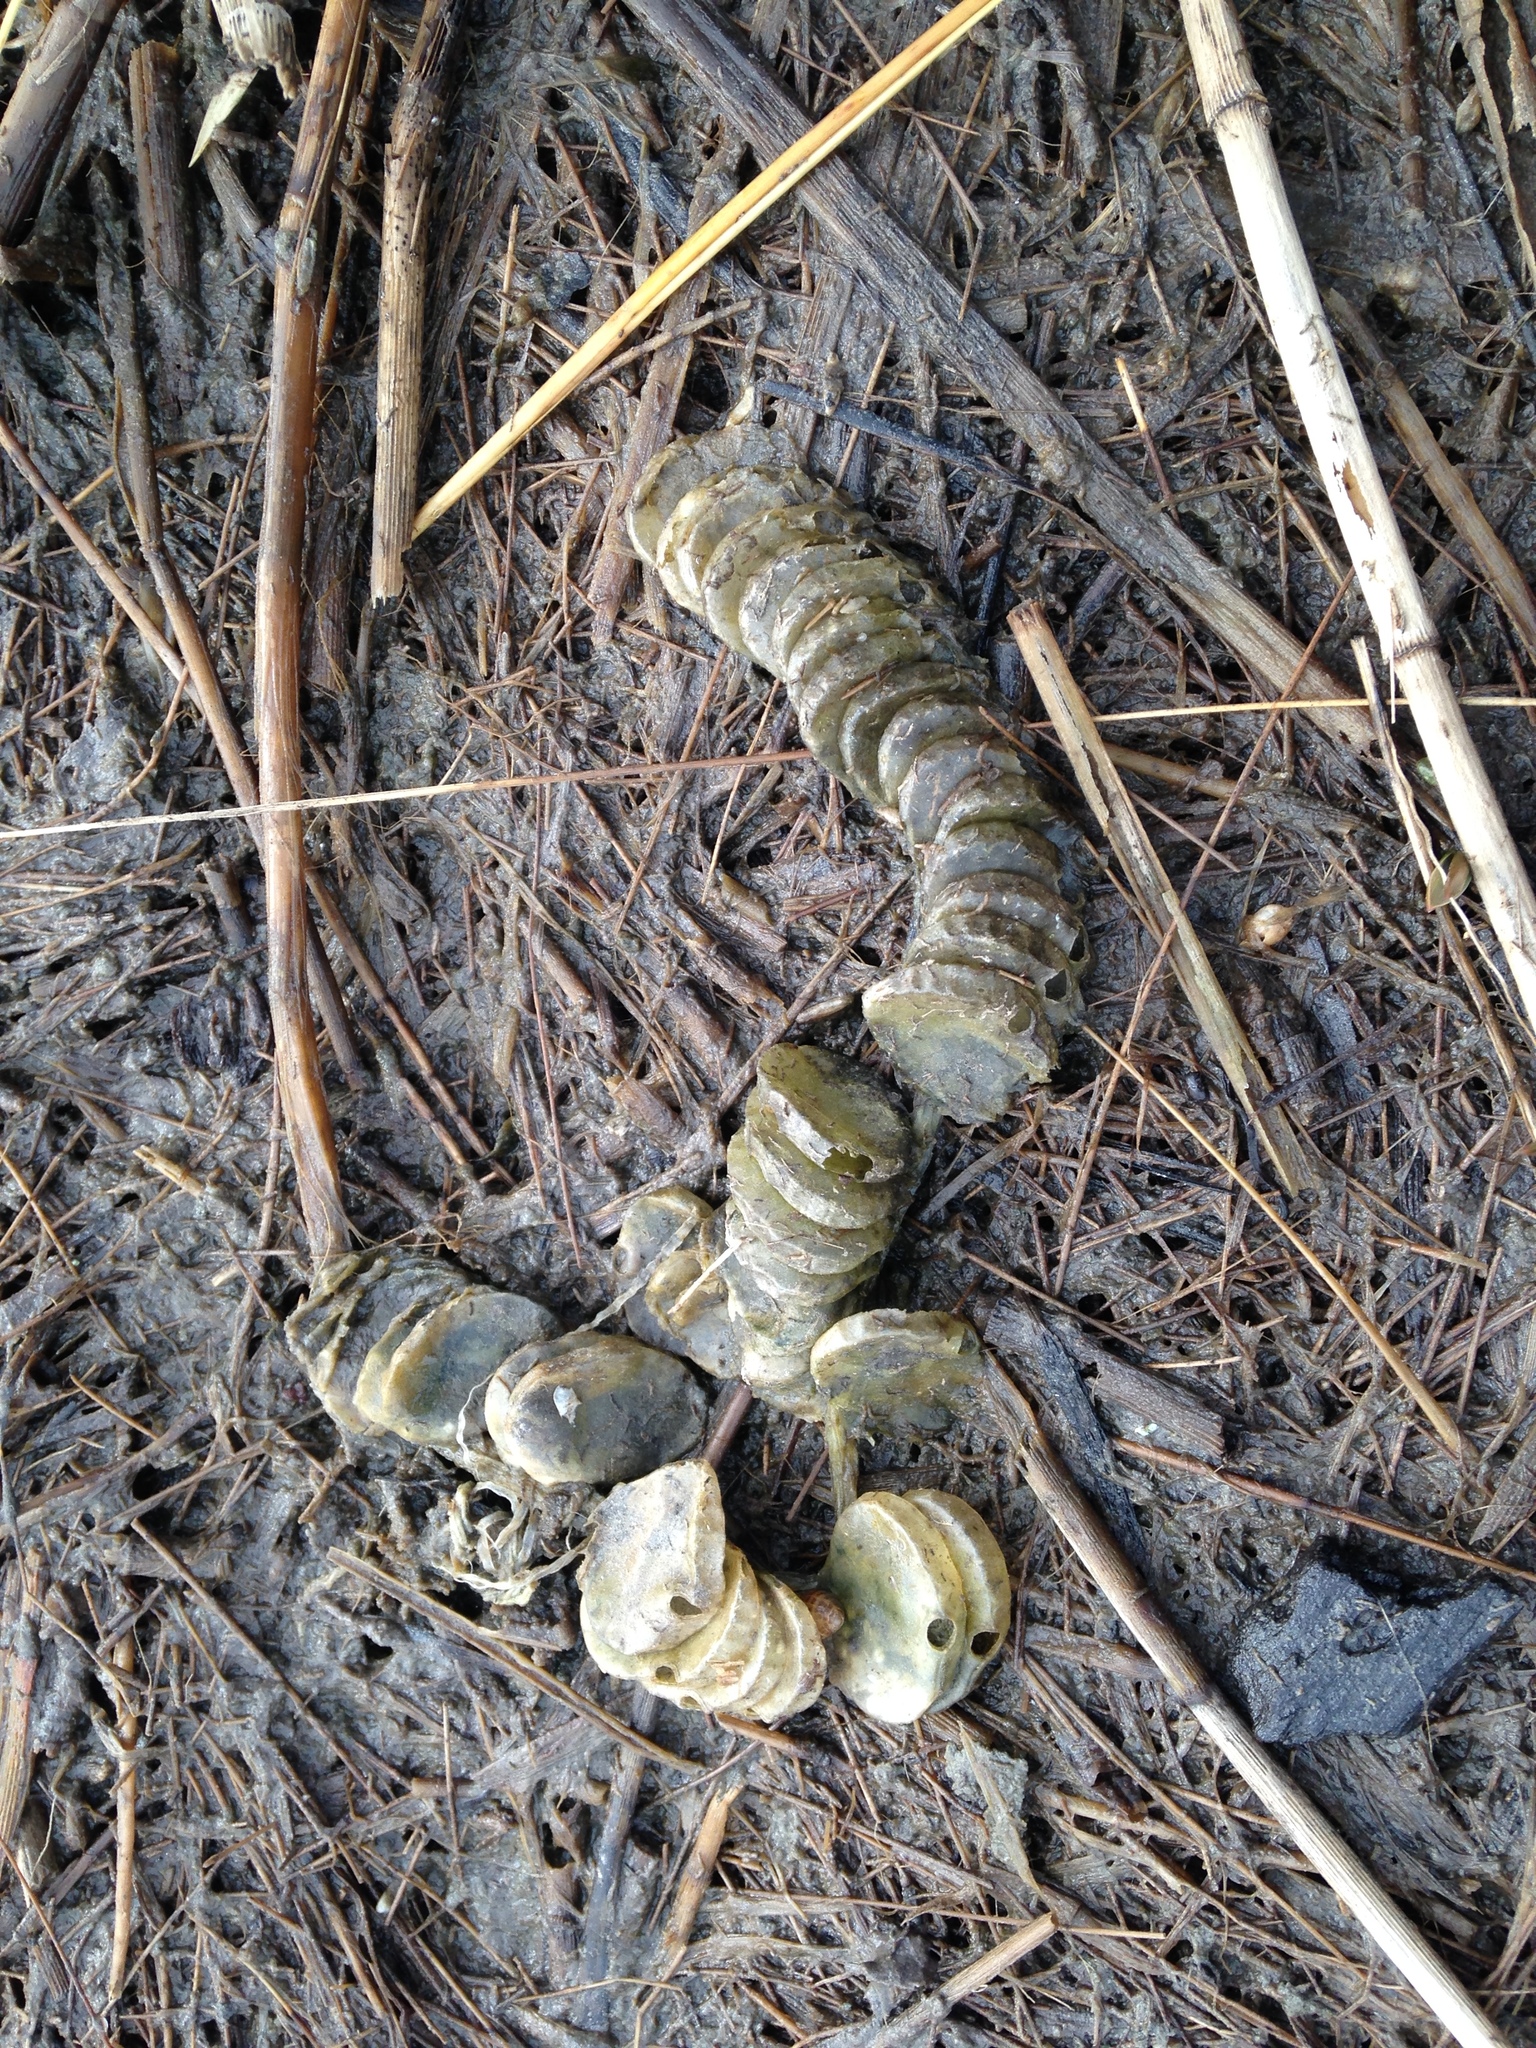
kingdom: Animalia
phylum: Mollusca
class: Gastropoda
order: Neogastropoda
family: Busyconidae
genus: Busycon
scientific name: Busycon carica
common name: Knobbed whelk
